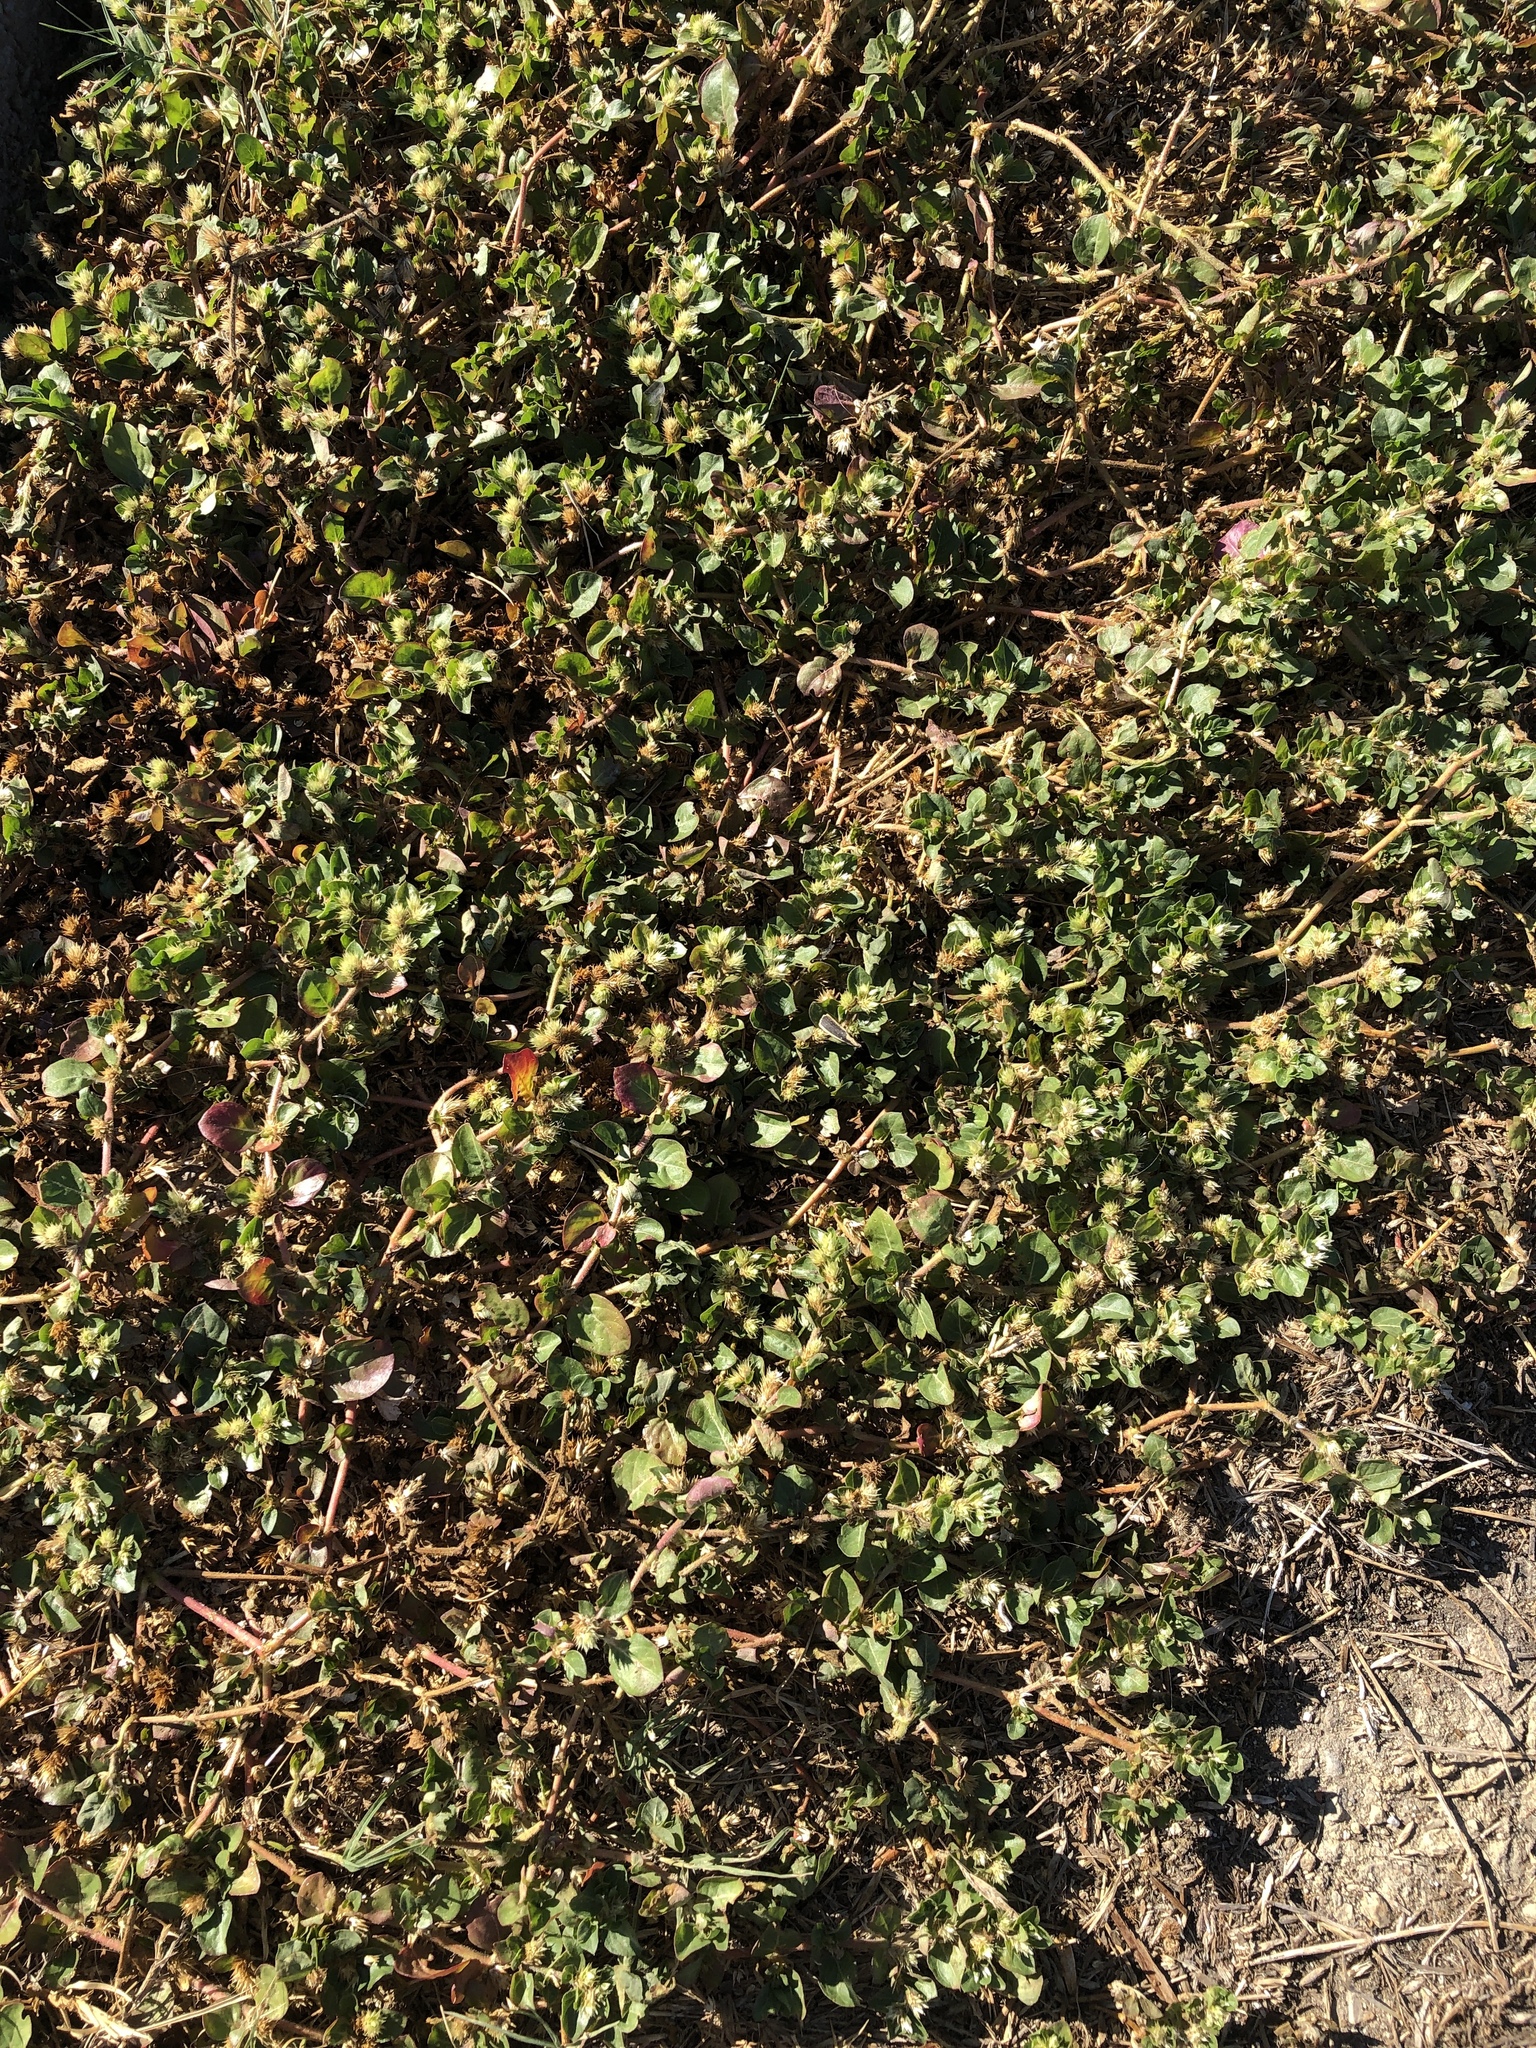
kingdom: Plantae
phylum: Tracheophyta
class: Magnoliopsida
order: Caryophyllales
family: Amaranthaceae
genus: Alternanthera
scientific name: Alternanthera pungens
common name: Khakiweed
